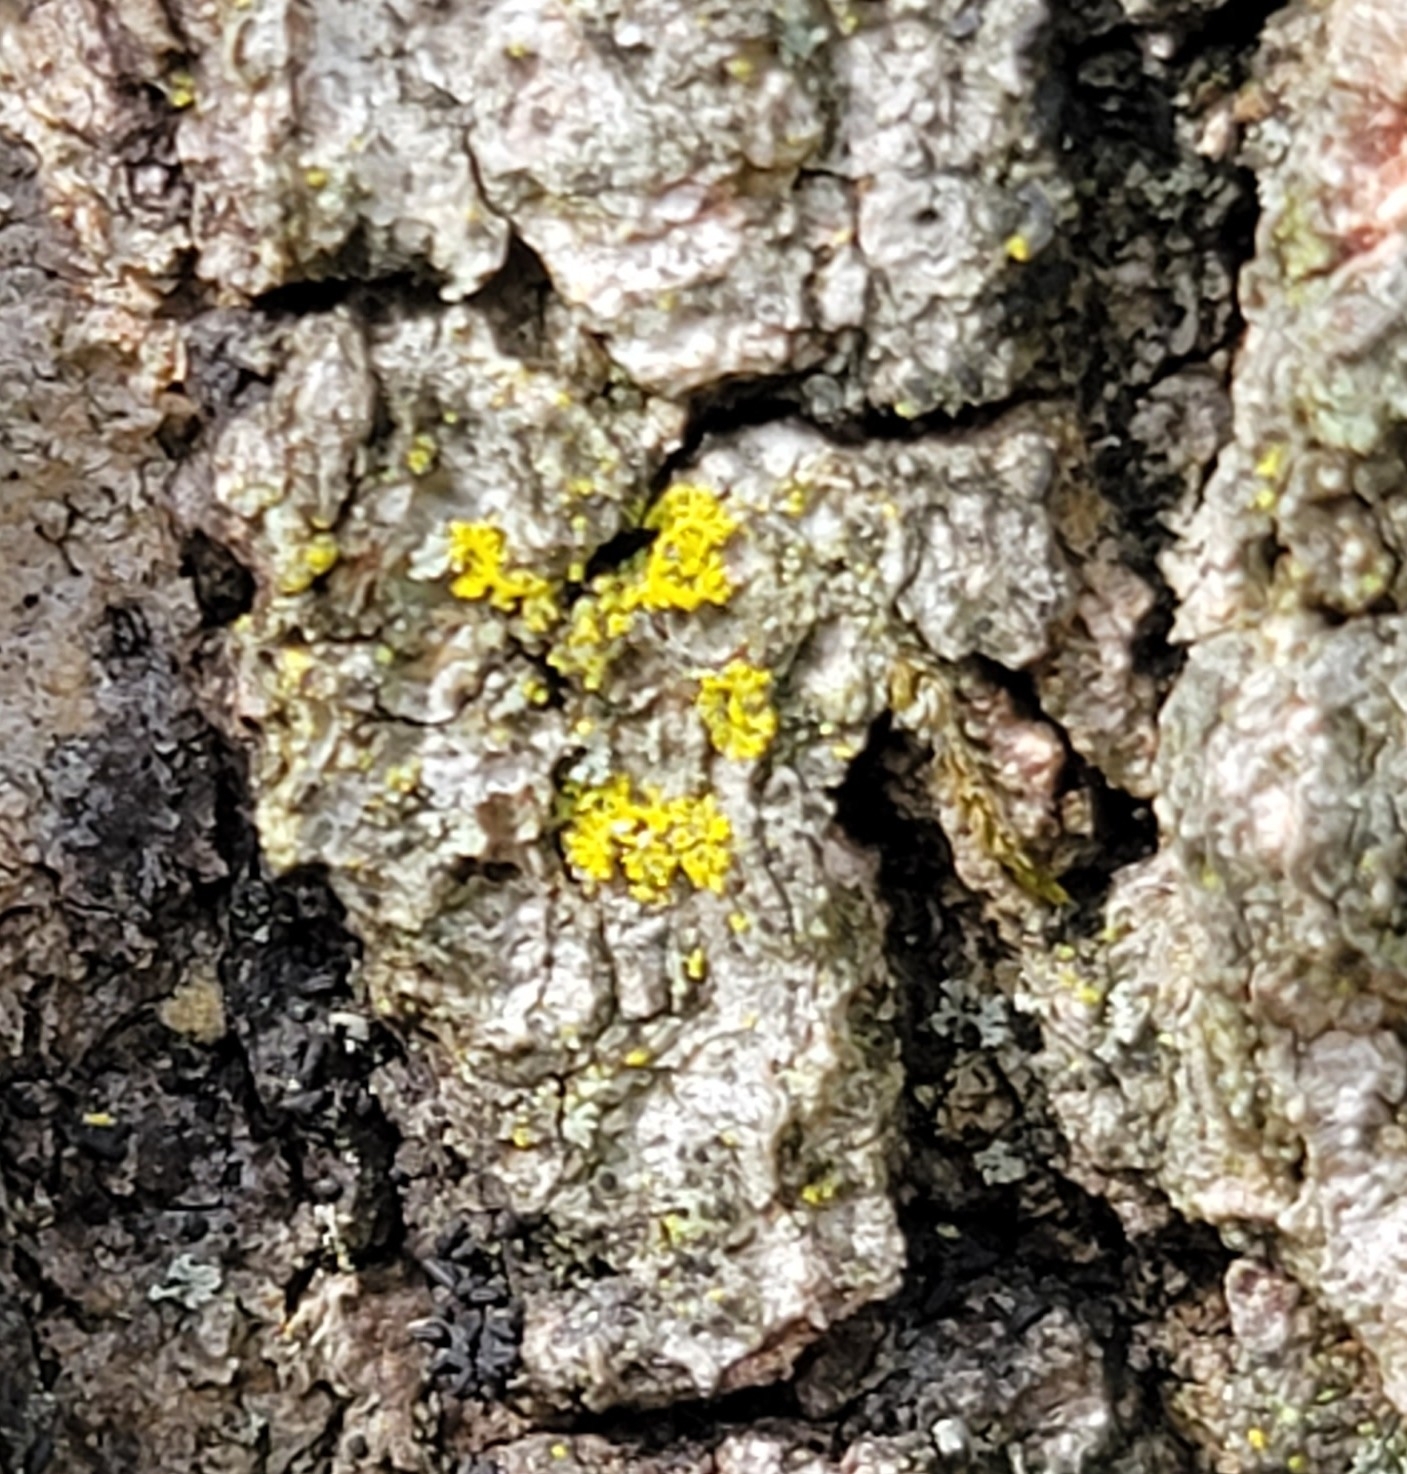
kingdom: Fungi
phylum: Ascomycota
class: Candelariomycetes
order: Candelariales
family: Candelariaceae
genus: Candelaria
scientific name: Candelaria concolor
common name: Candleflame lichen
